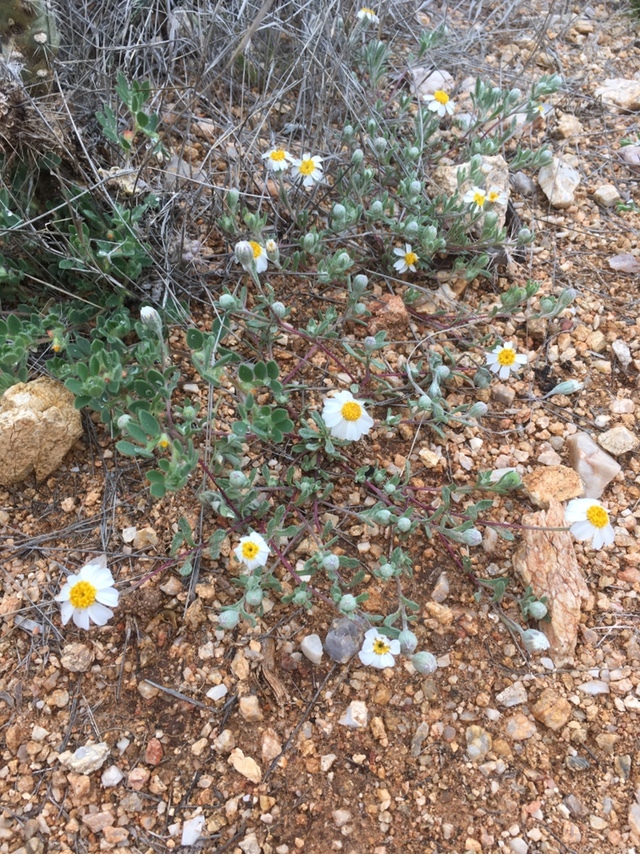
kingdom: Plantae
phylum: Tracheophyta
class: Magnoliopsida
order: Asterales
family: Asteraceae
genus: Eriophyllum
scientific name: Eriophyllum lanosum
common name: White easter-bonnets
